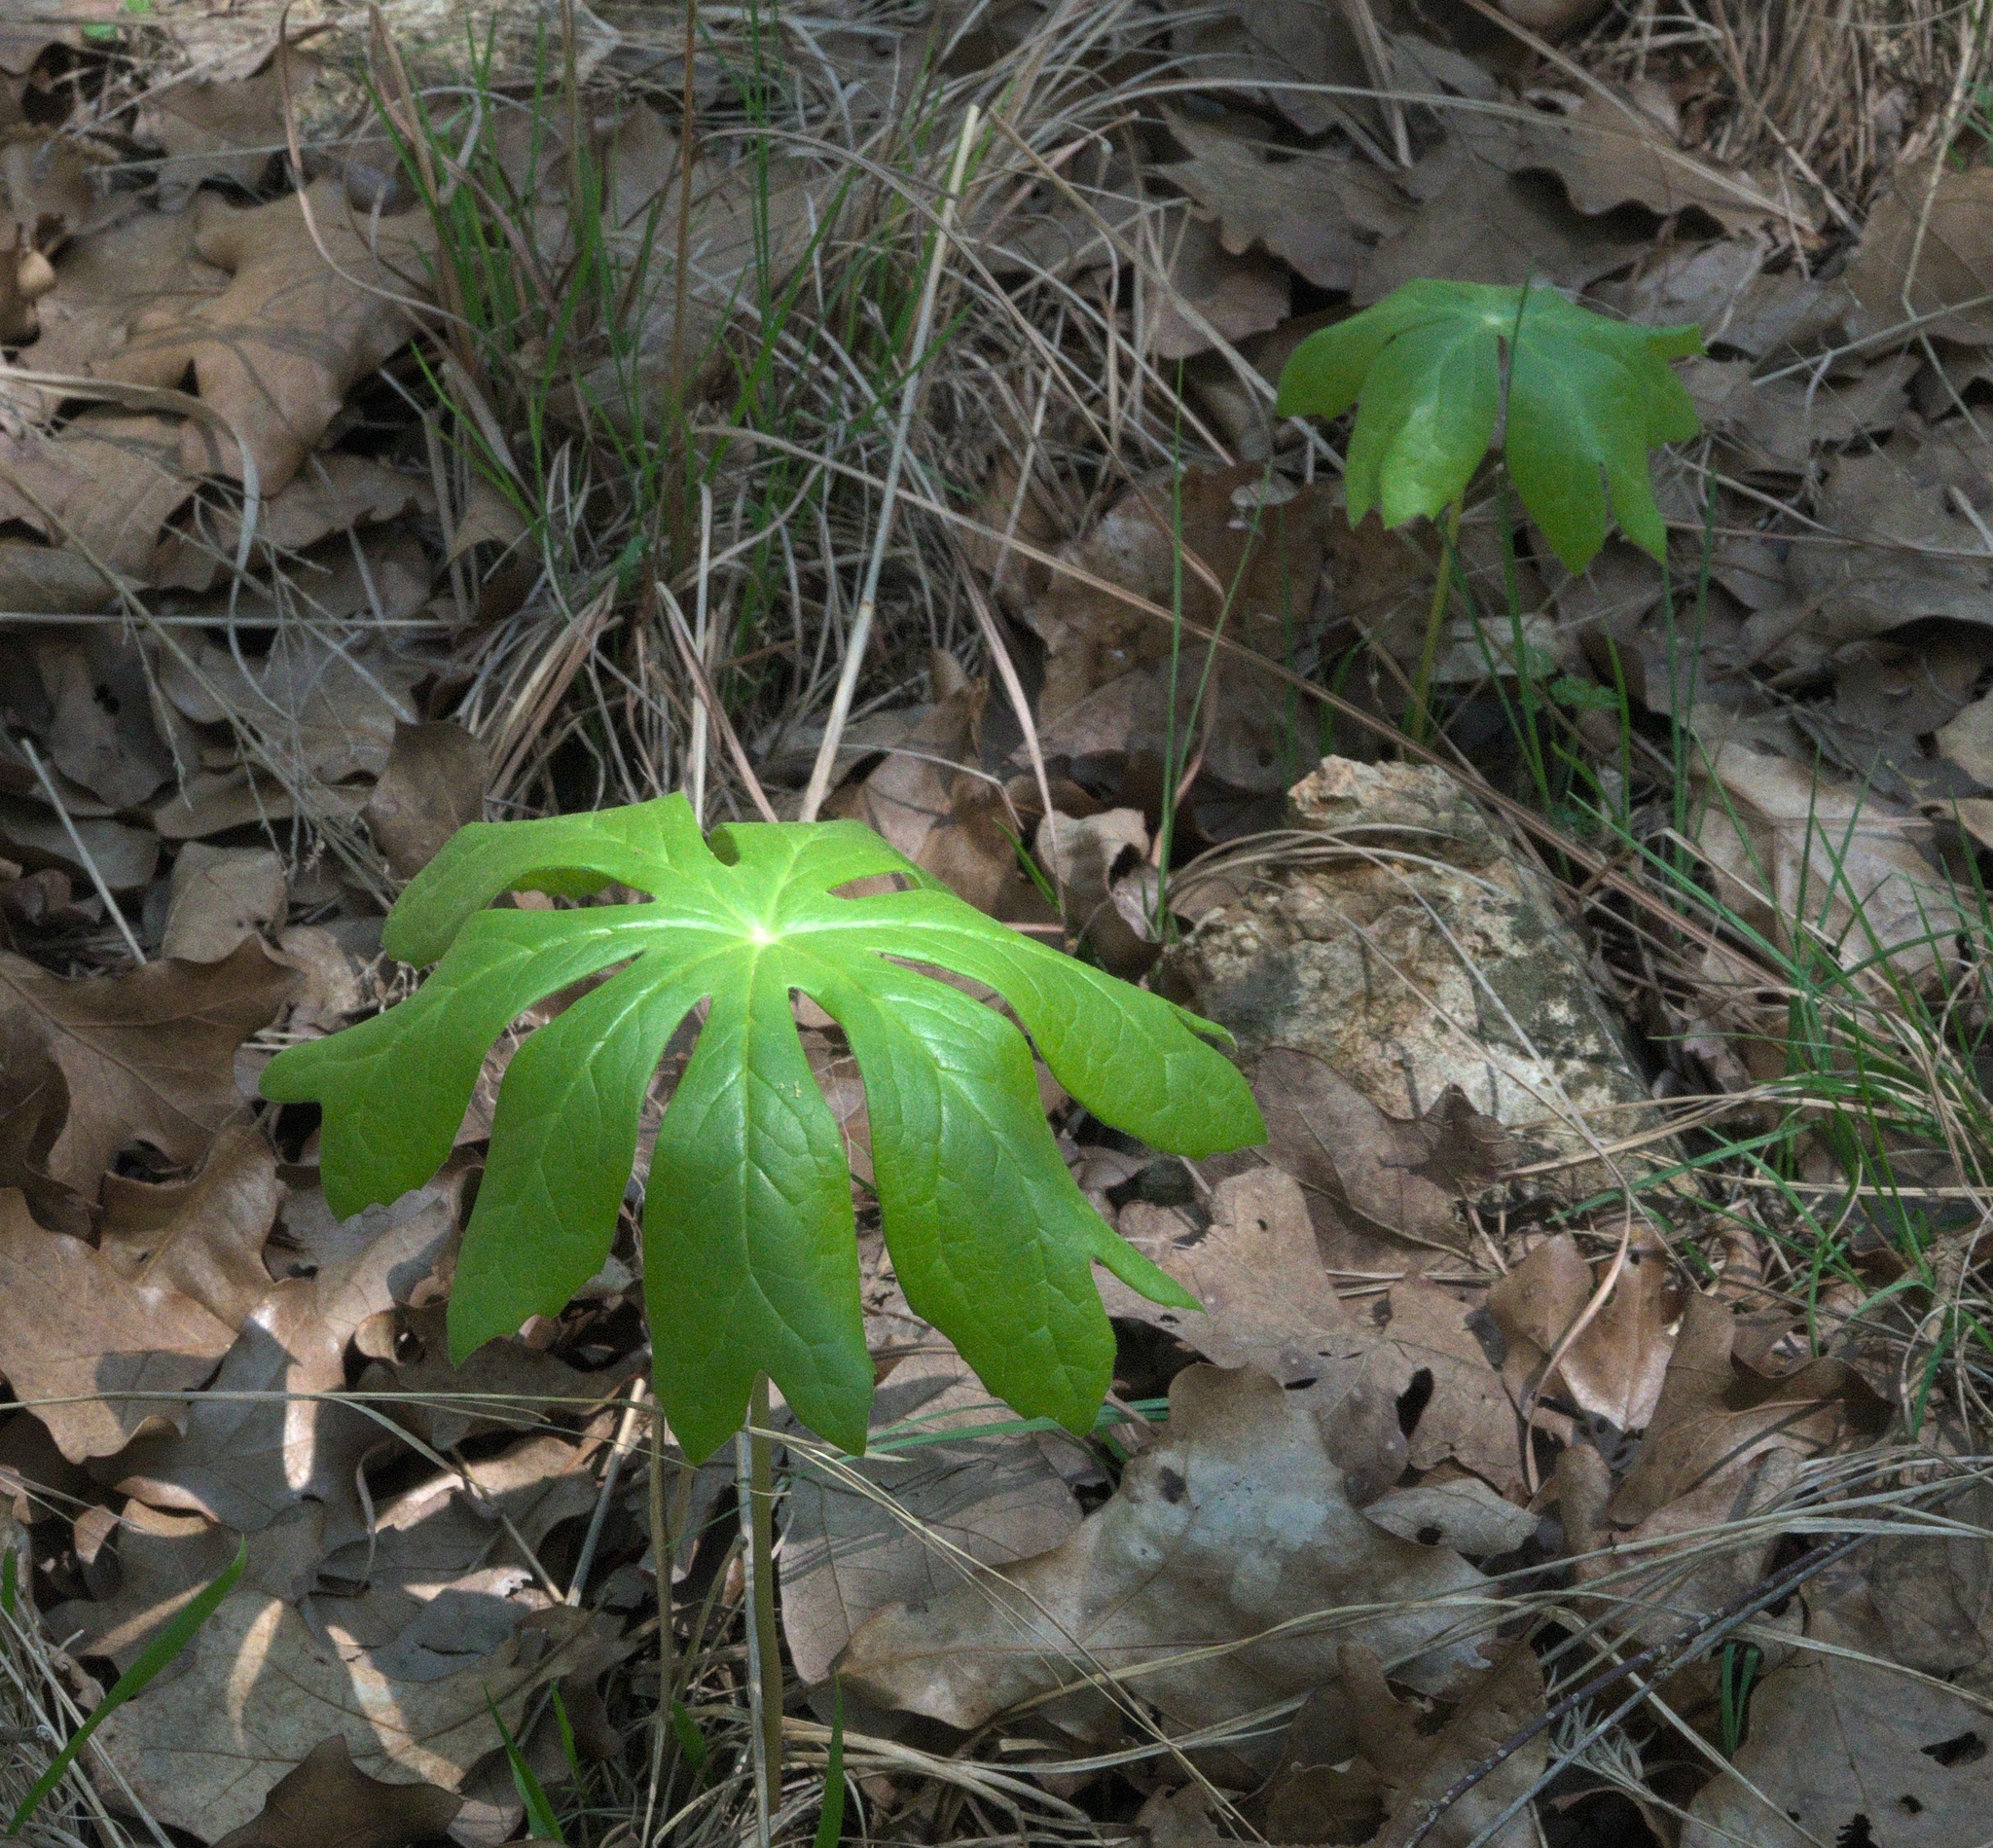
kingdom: Plantae
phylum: Tracheophyta
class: Magnoliopsida
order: Ranunculales
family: Berberidaceae
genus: Podophyllum
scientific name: Podophyllum peltatum
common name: Wild mandrake
